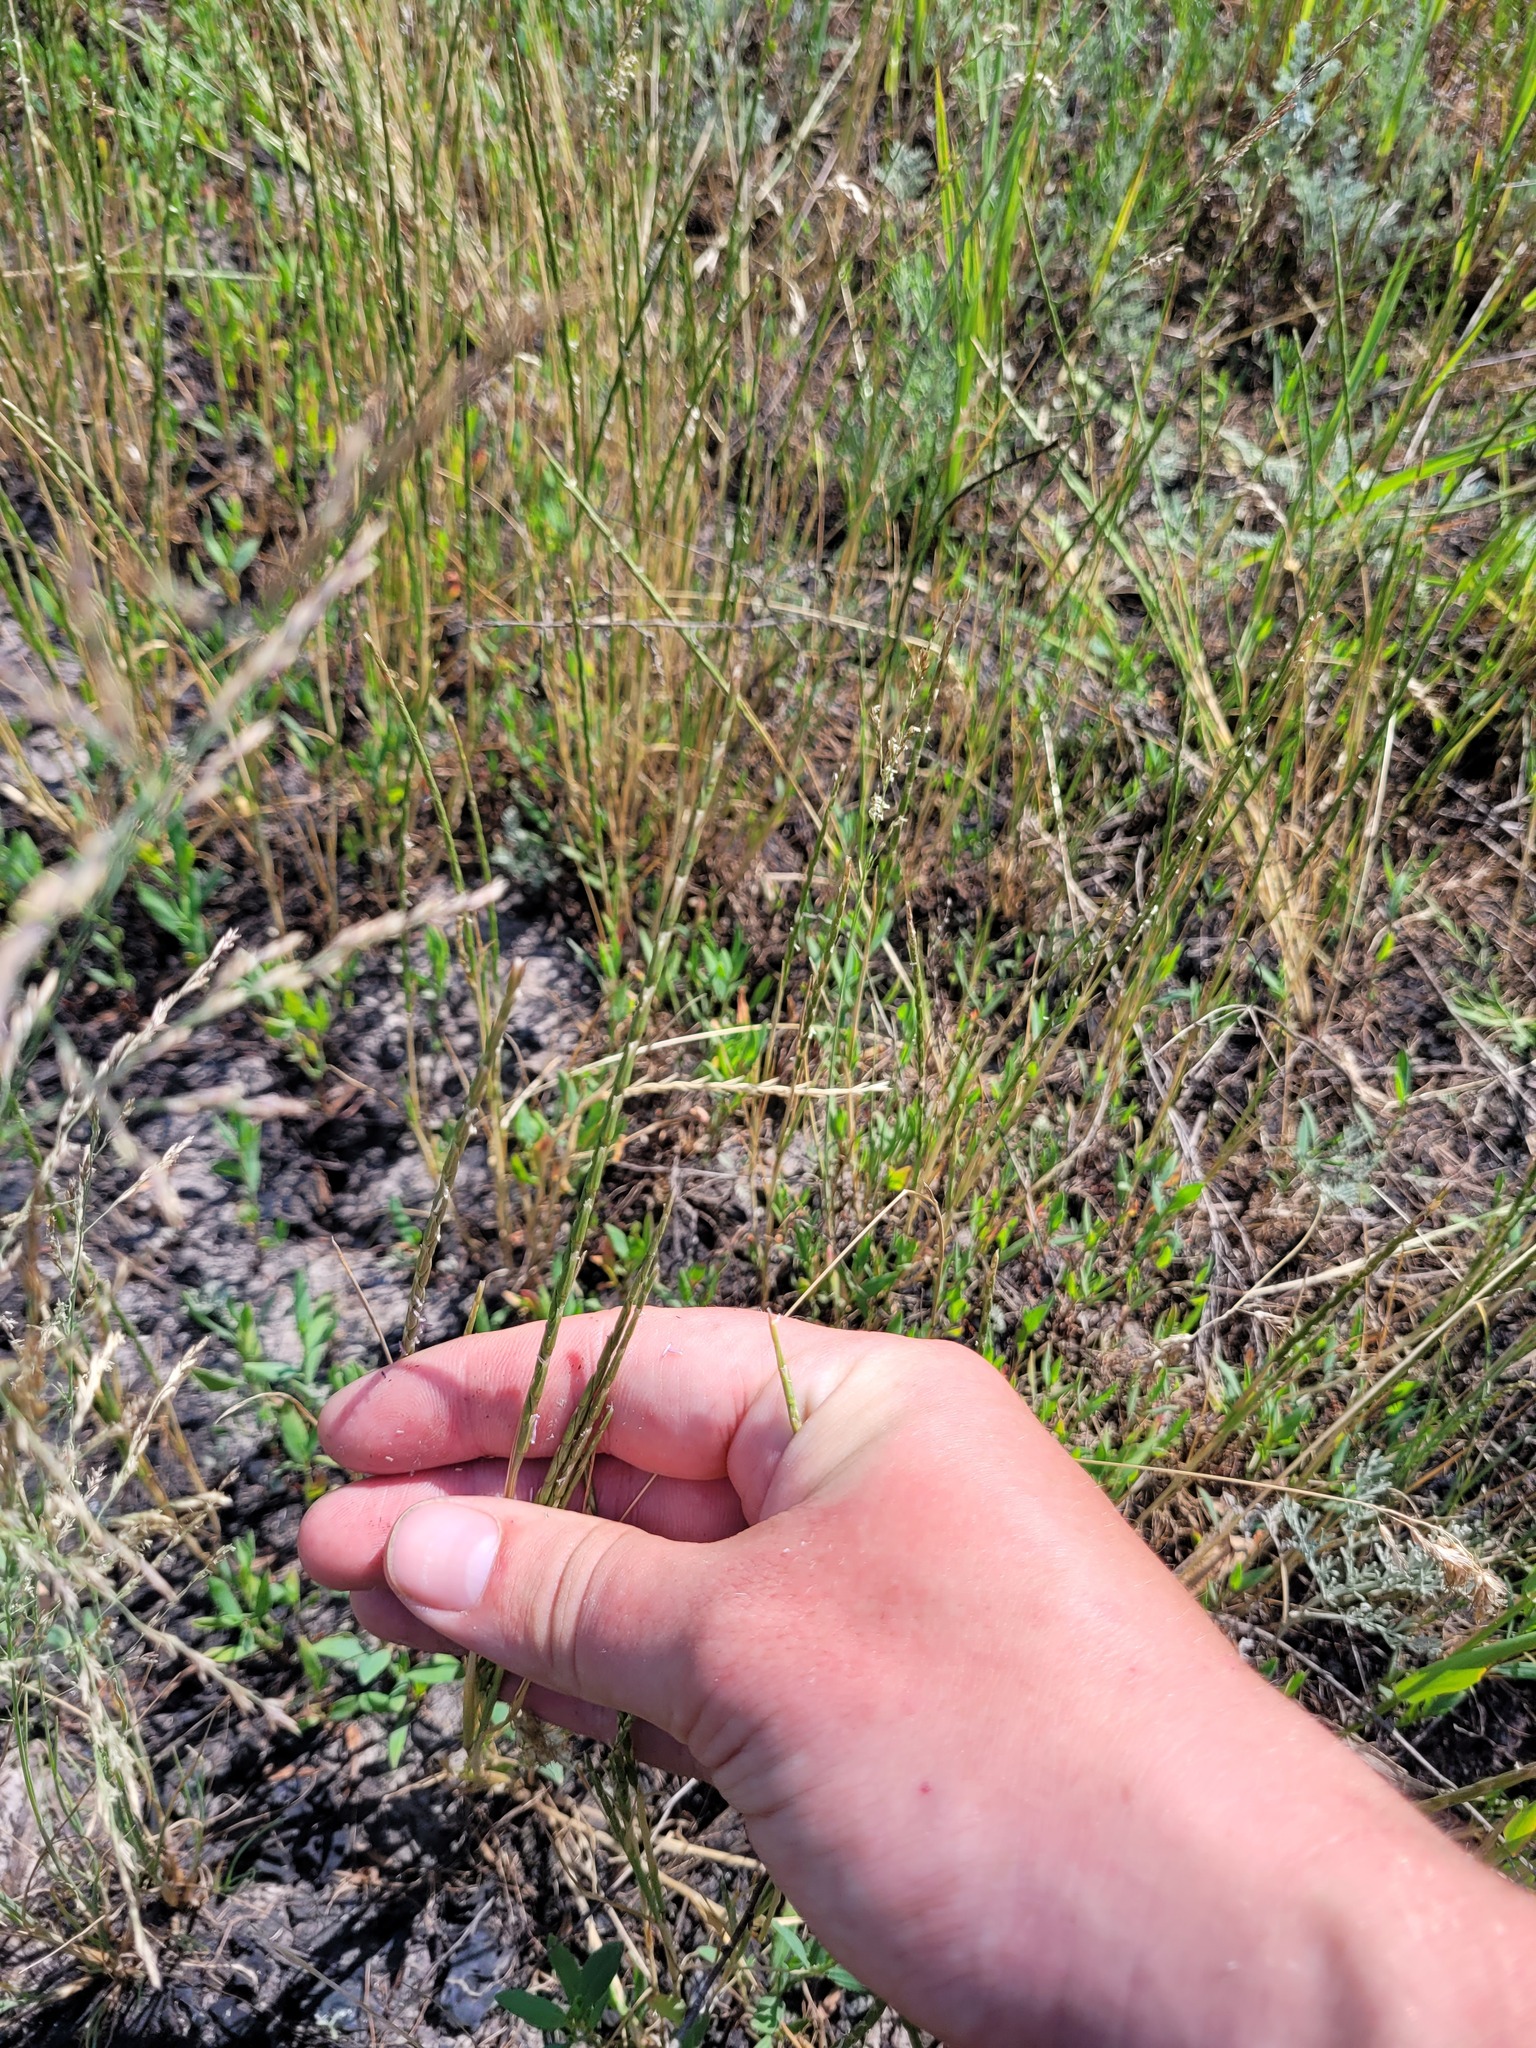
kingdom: Plantae
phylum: Tracheophyta
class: Liliopsida
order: Poales
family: Poaceae
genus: Pholiurus
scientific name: Pholiurus pannonicus
